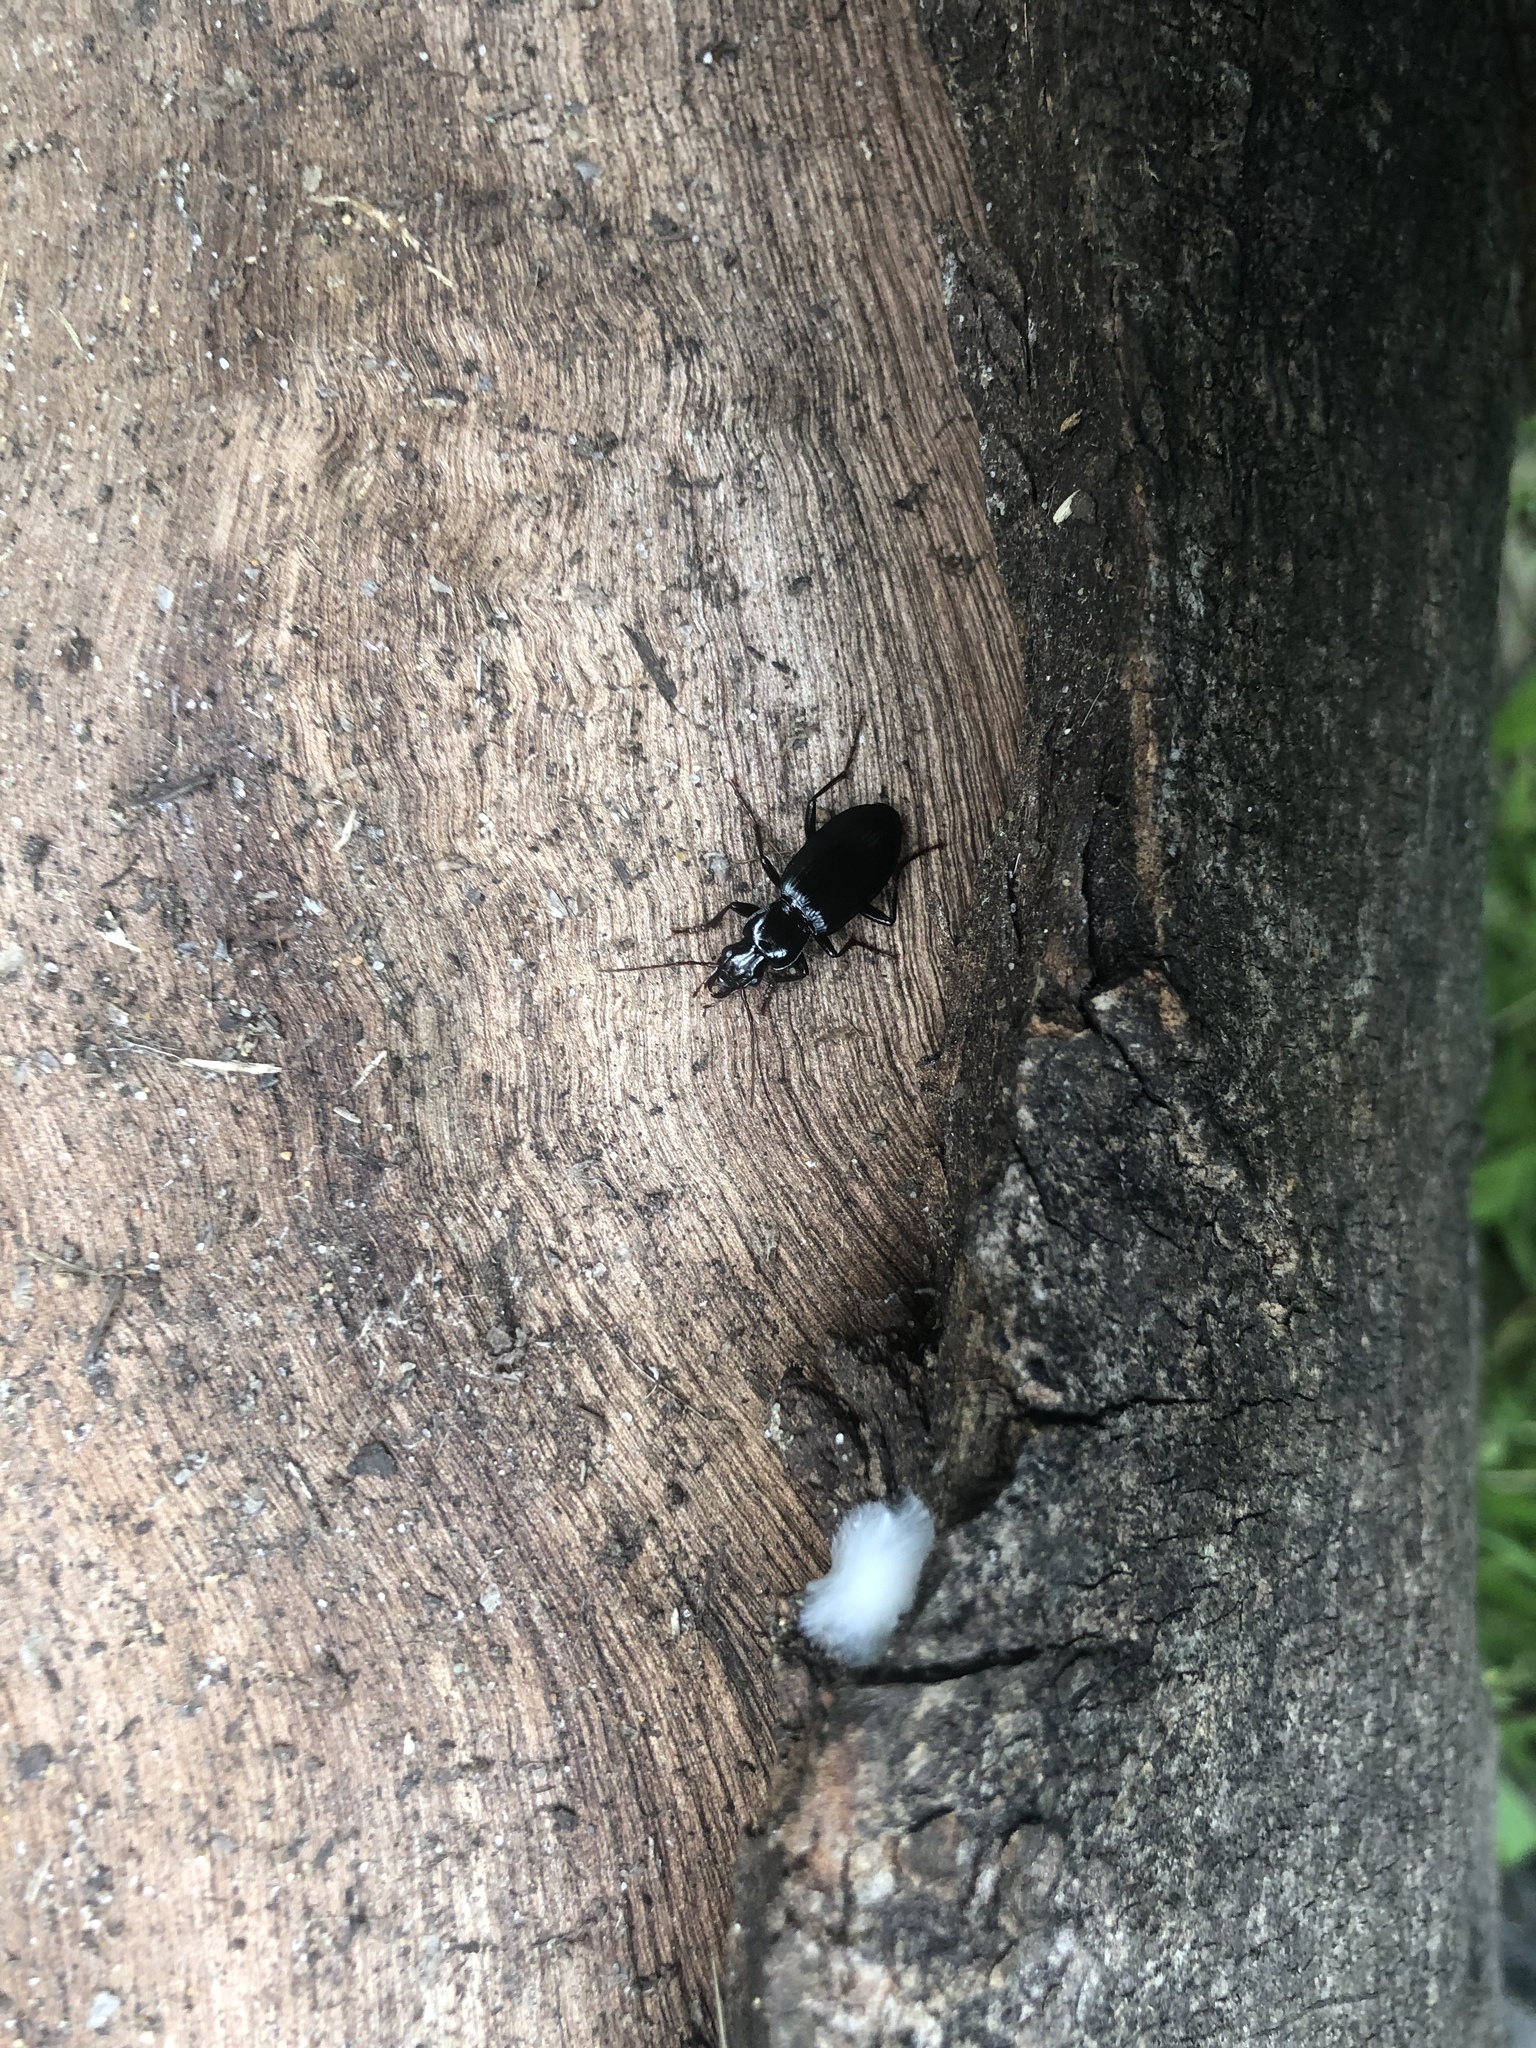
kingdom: Animalia
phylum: Arthropoda
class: Insecta
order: Coleoptera
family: Carabidae
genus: Laemostenus
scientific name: Laemostenus complanatus
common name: Cosmopolitan ground beetle
